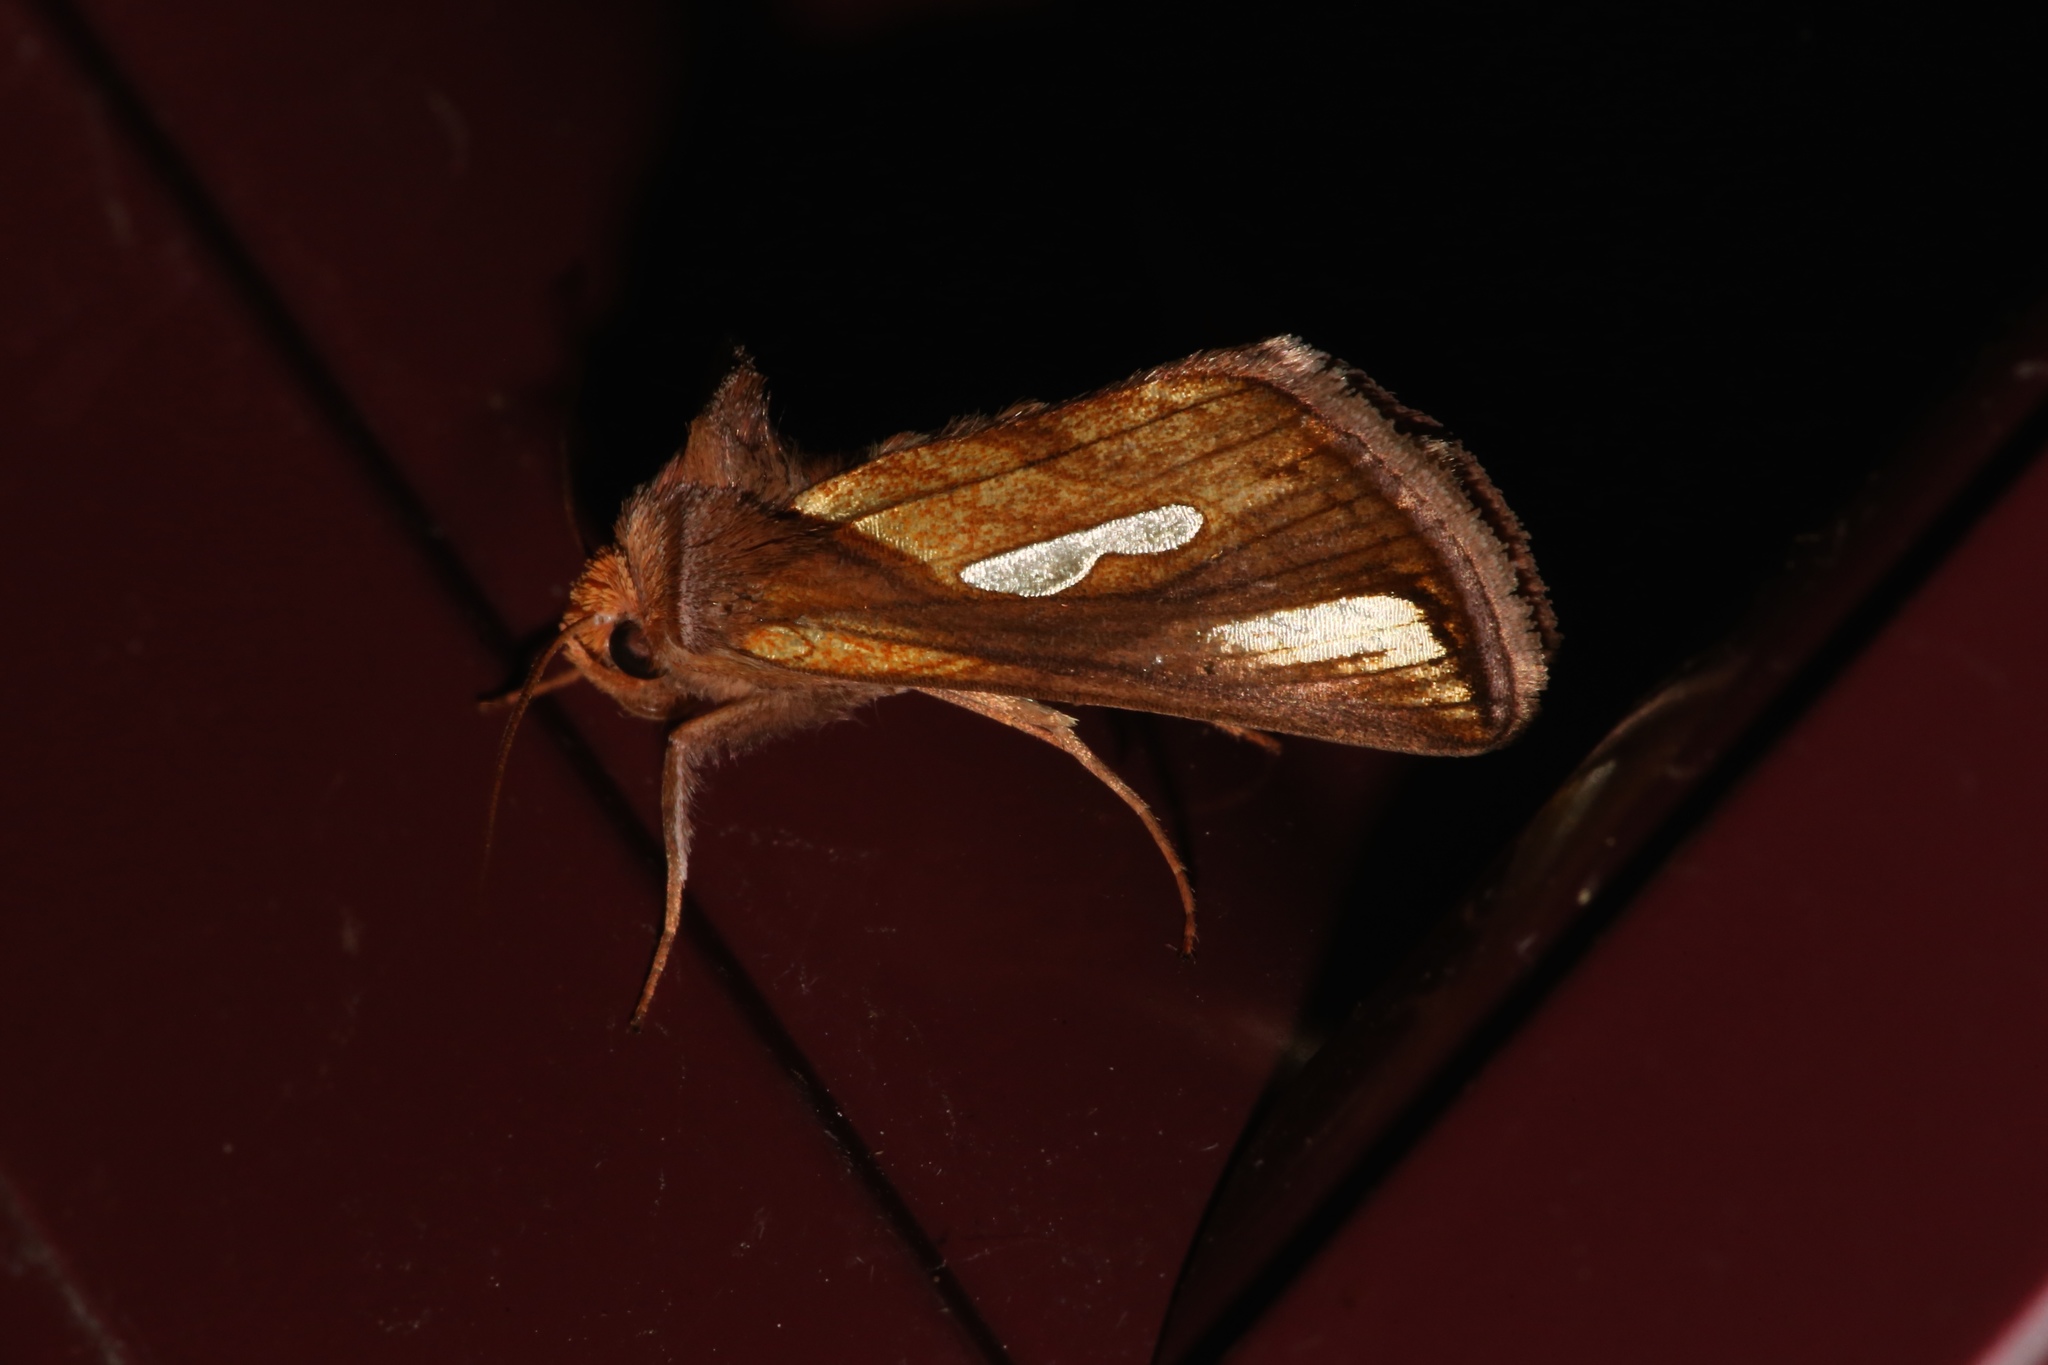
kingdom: Animalia
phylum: Arthropoda
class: Insecta
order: Lepidoptera
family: Noctuidae
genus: Plusia
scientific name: Plusia contexta
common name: Connected looper moth
